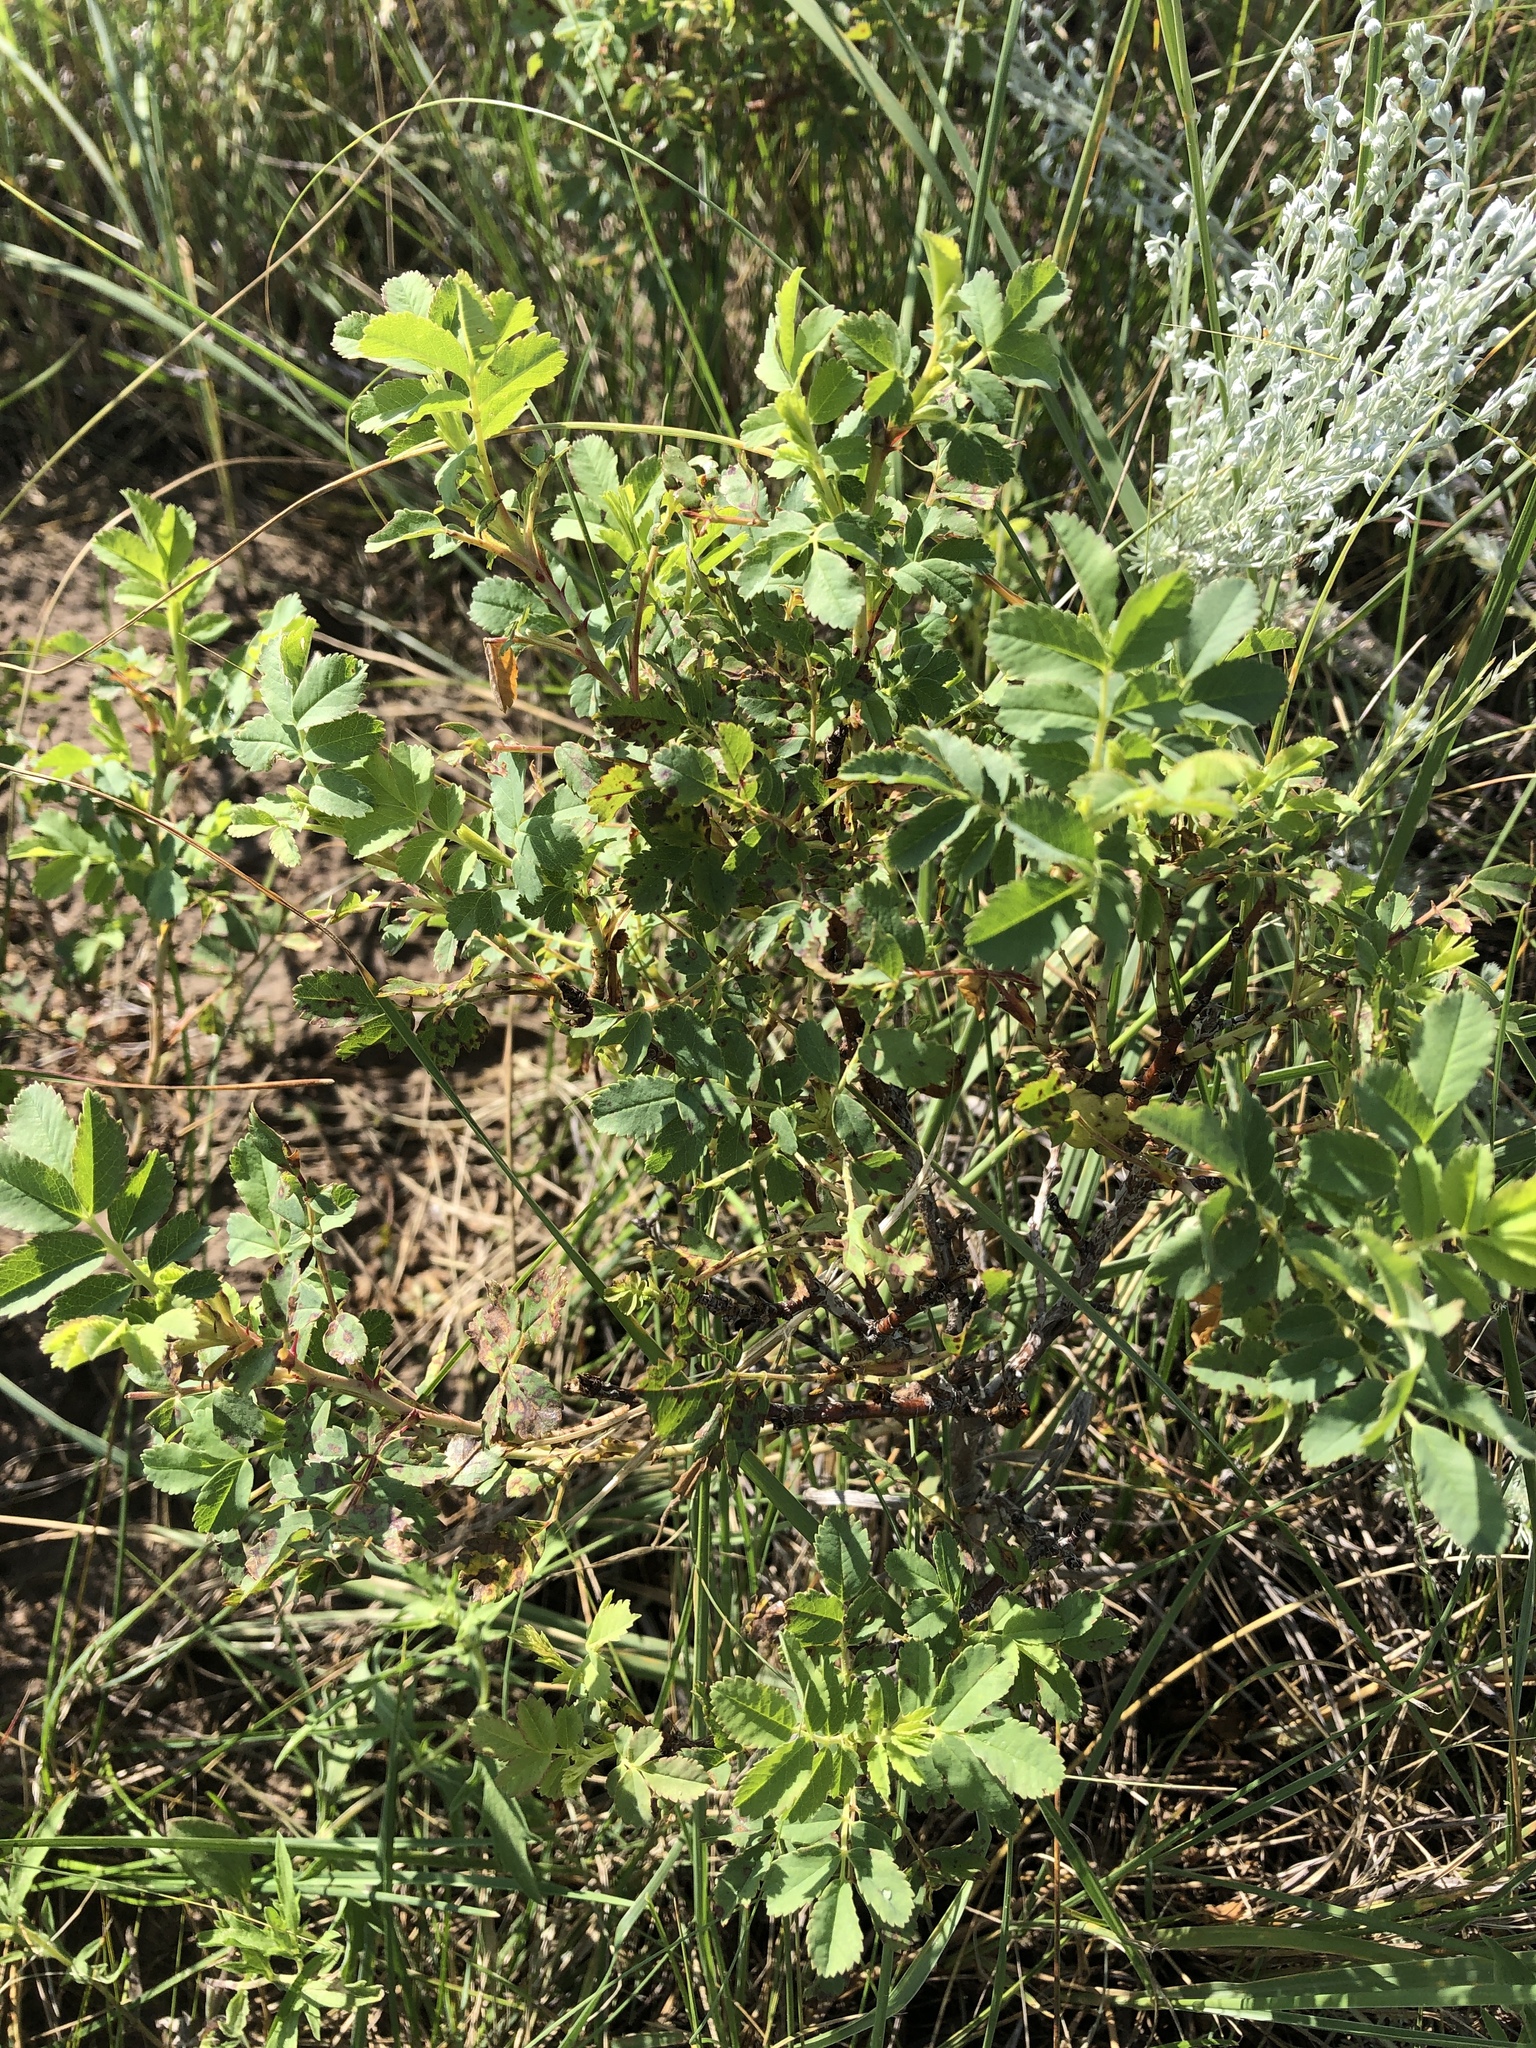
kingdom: Plantae
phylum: Tracheophyta
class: Magnoliopsida
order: Rosales
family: Rosaceae
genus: Rosa
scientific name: Rosa arkansana
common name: Prairie rose
